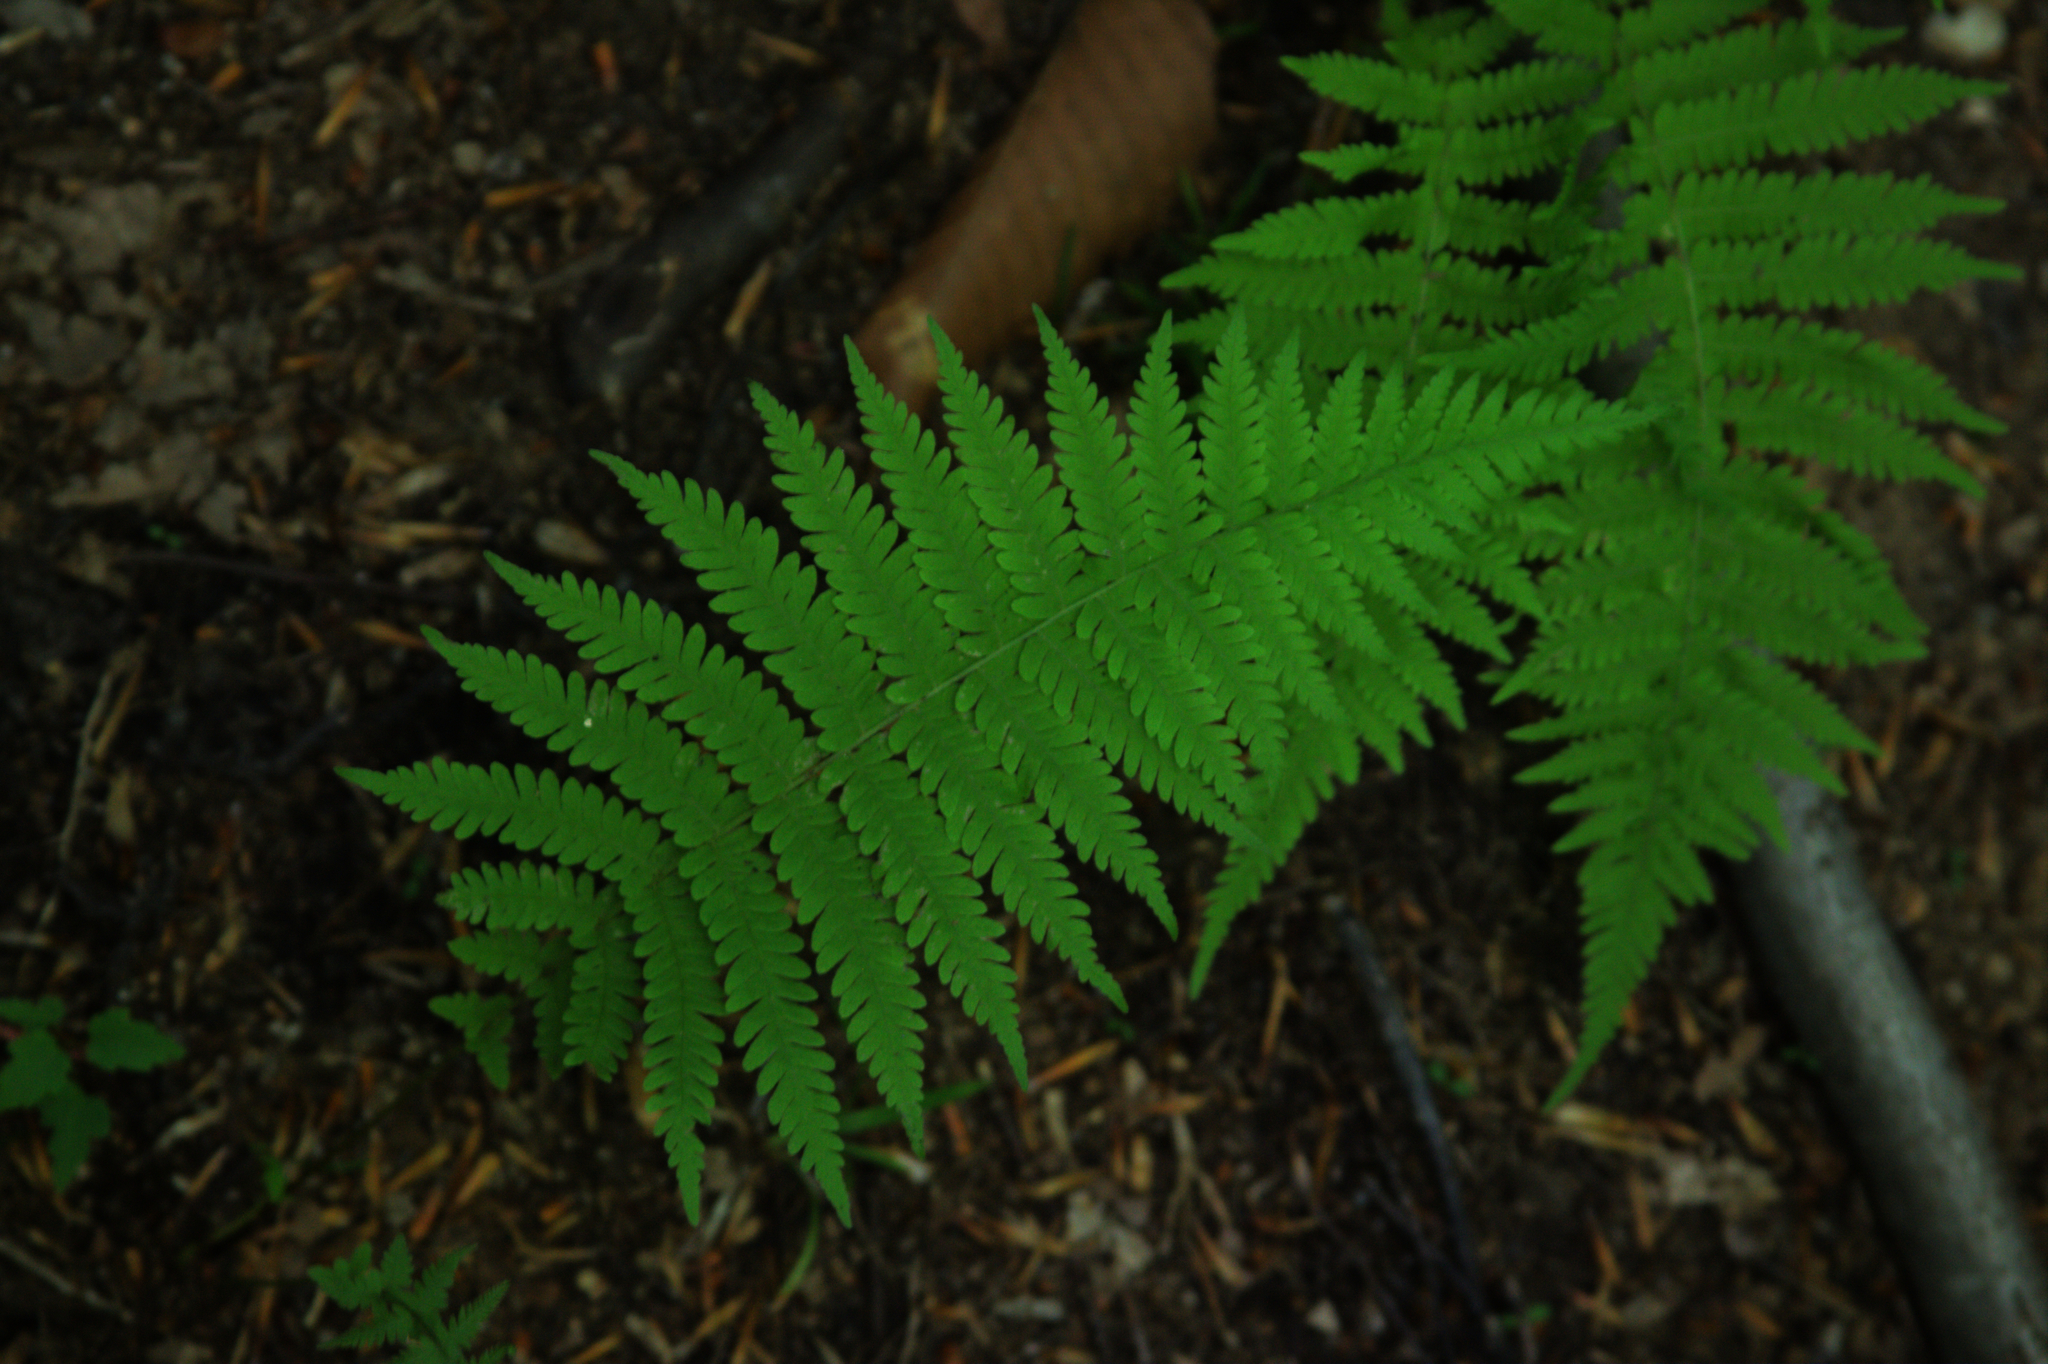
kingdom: Plantae
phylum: Tracheophyta
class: Polypodiopsida
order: Polypodiales
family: Thelypteridaceae
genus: Amauropelta
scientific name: Amauropelta noveboracensis
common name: New york fern
